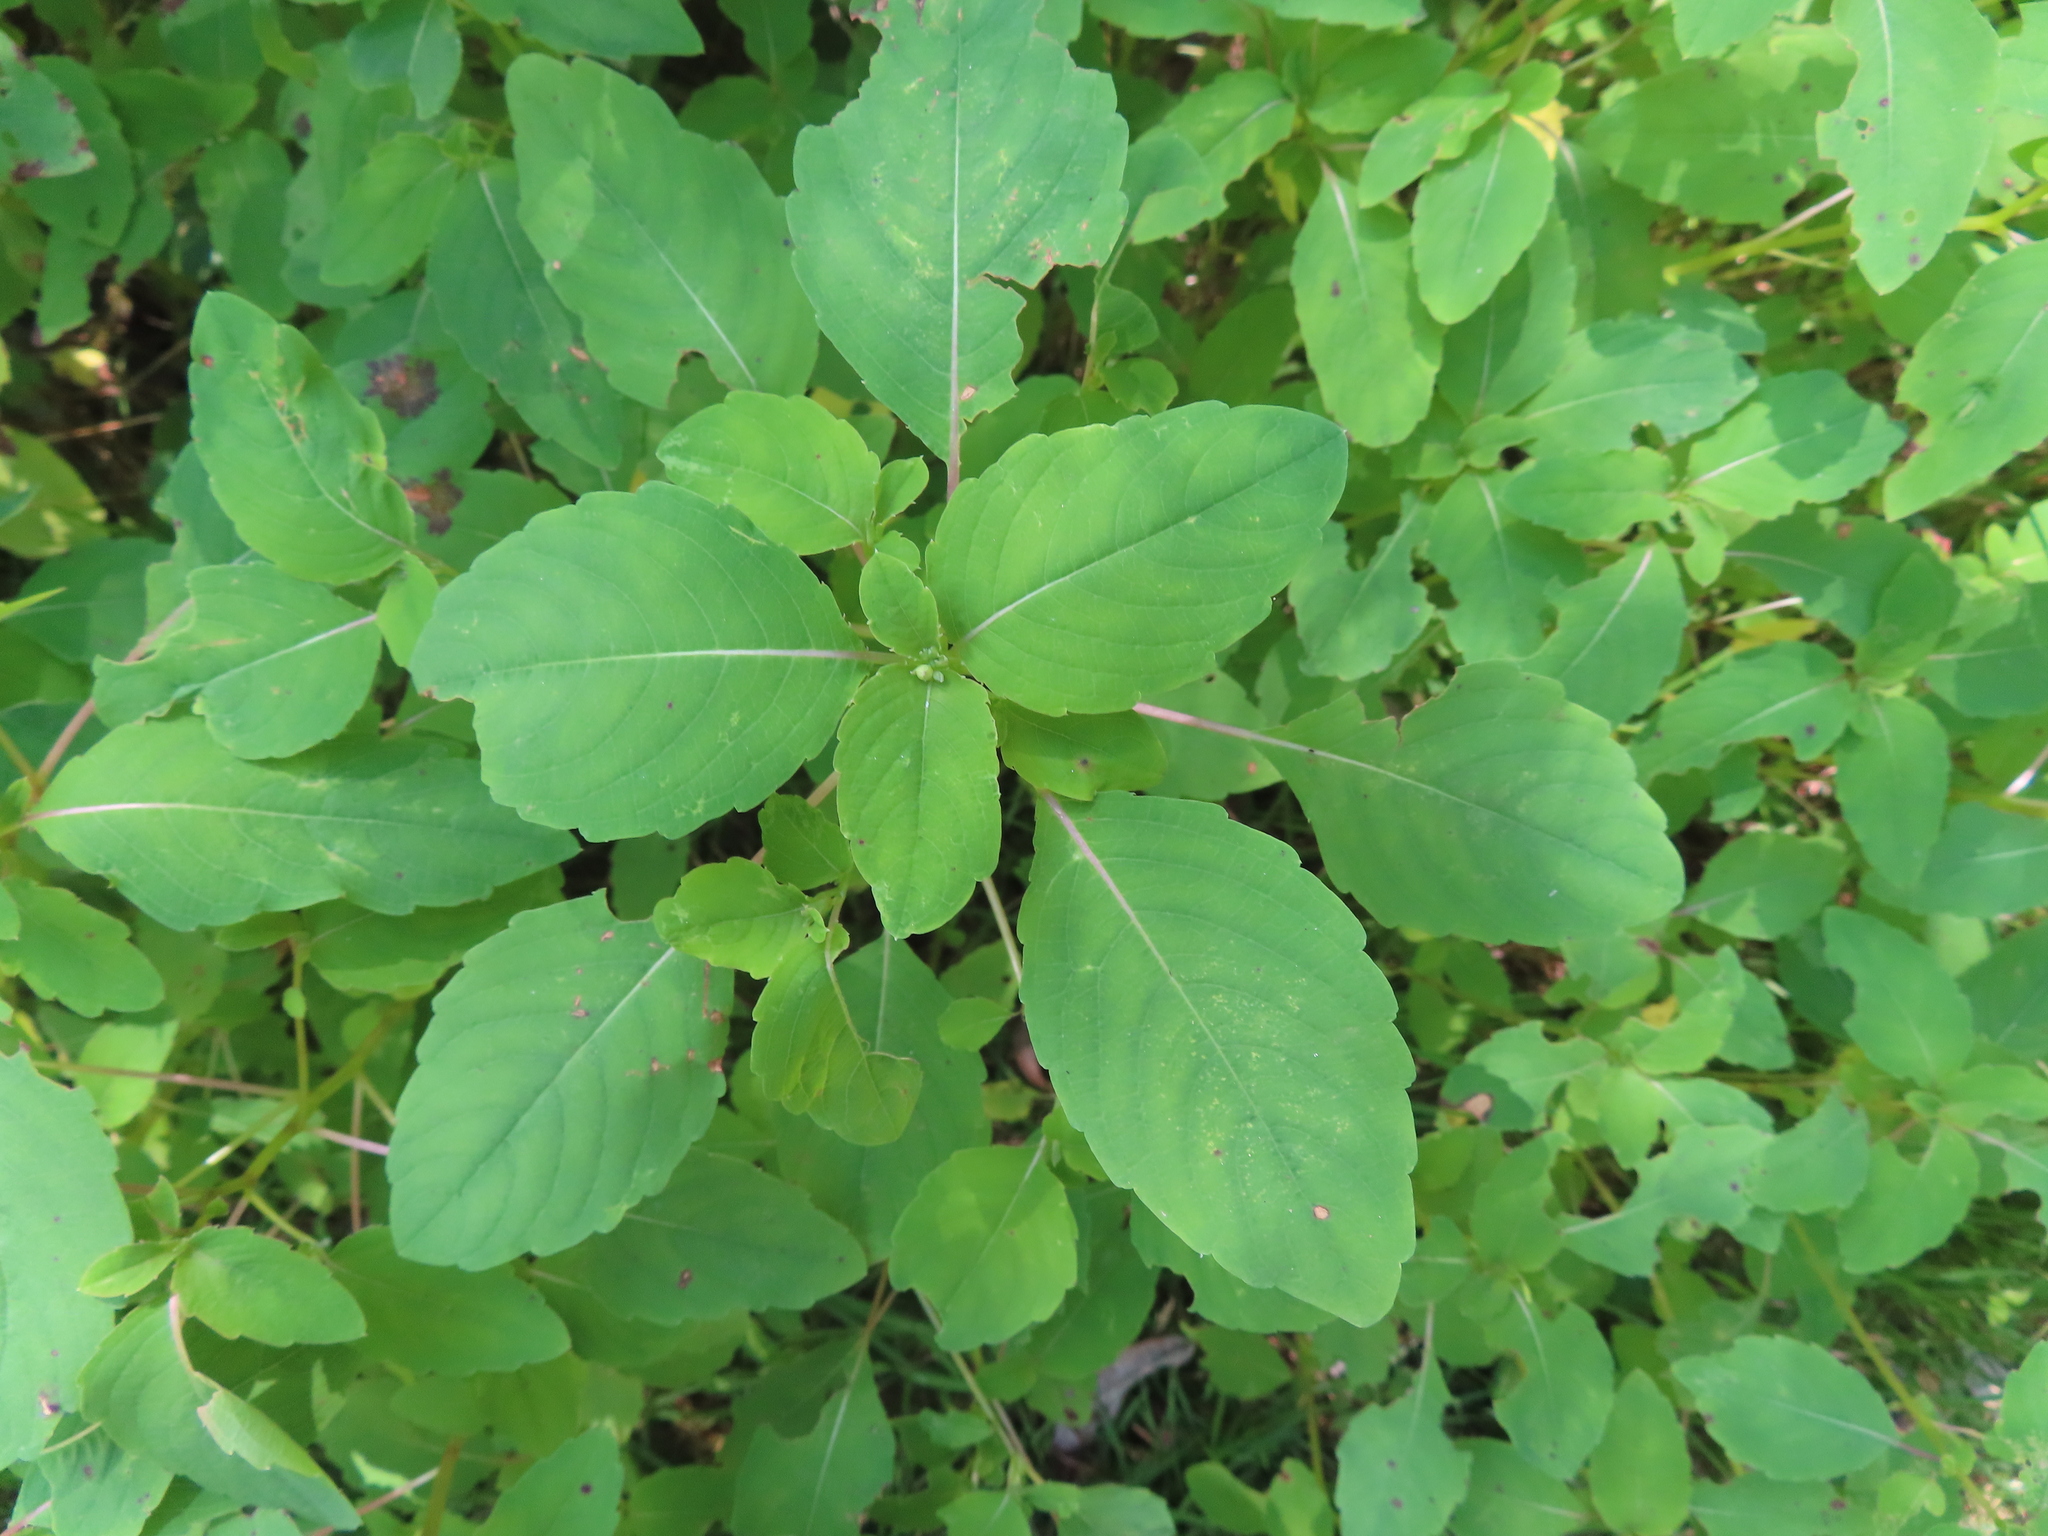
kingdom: Plantae
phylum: Tracheophyta
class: Magnoliopsida
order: Ericales
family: Balsaminaceae
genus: Impatiens
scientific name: Impatiens capensis
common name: Orange balsam
